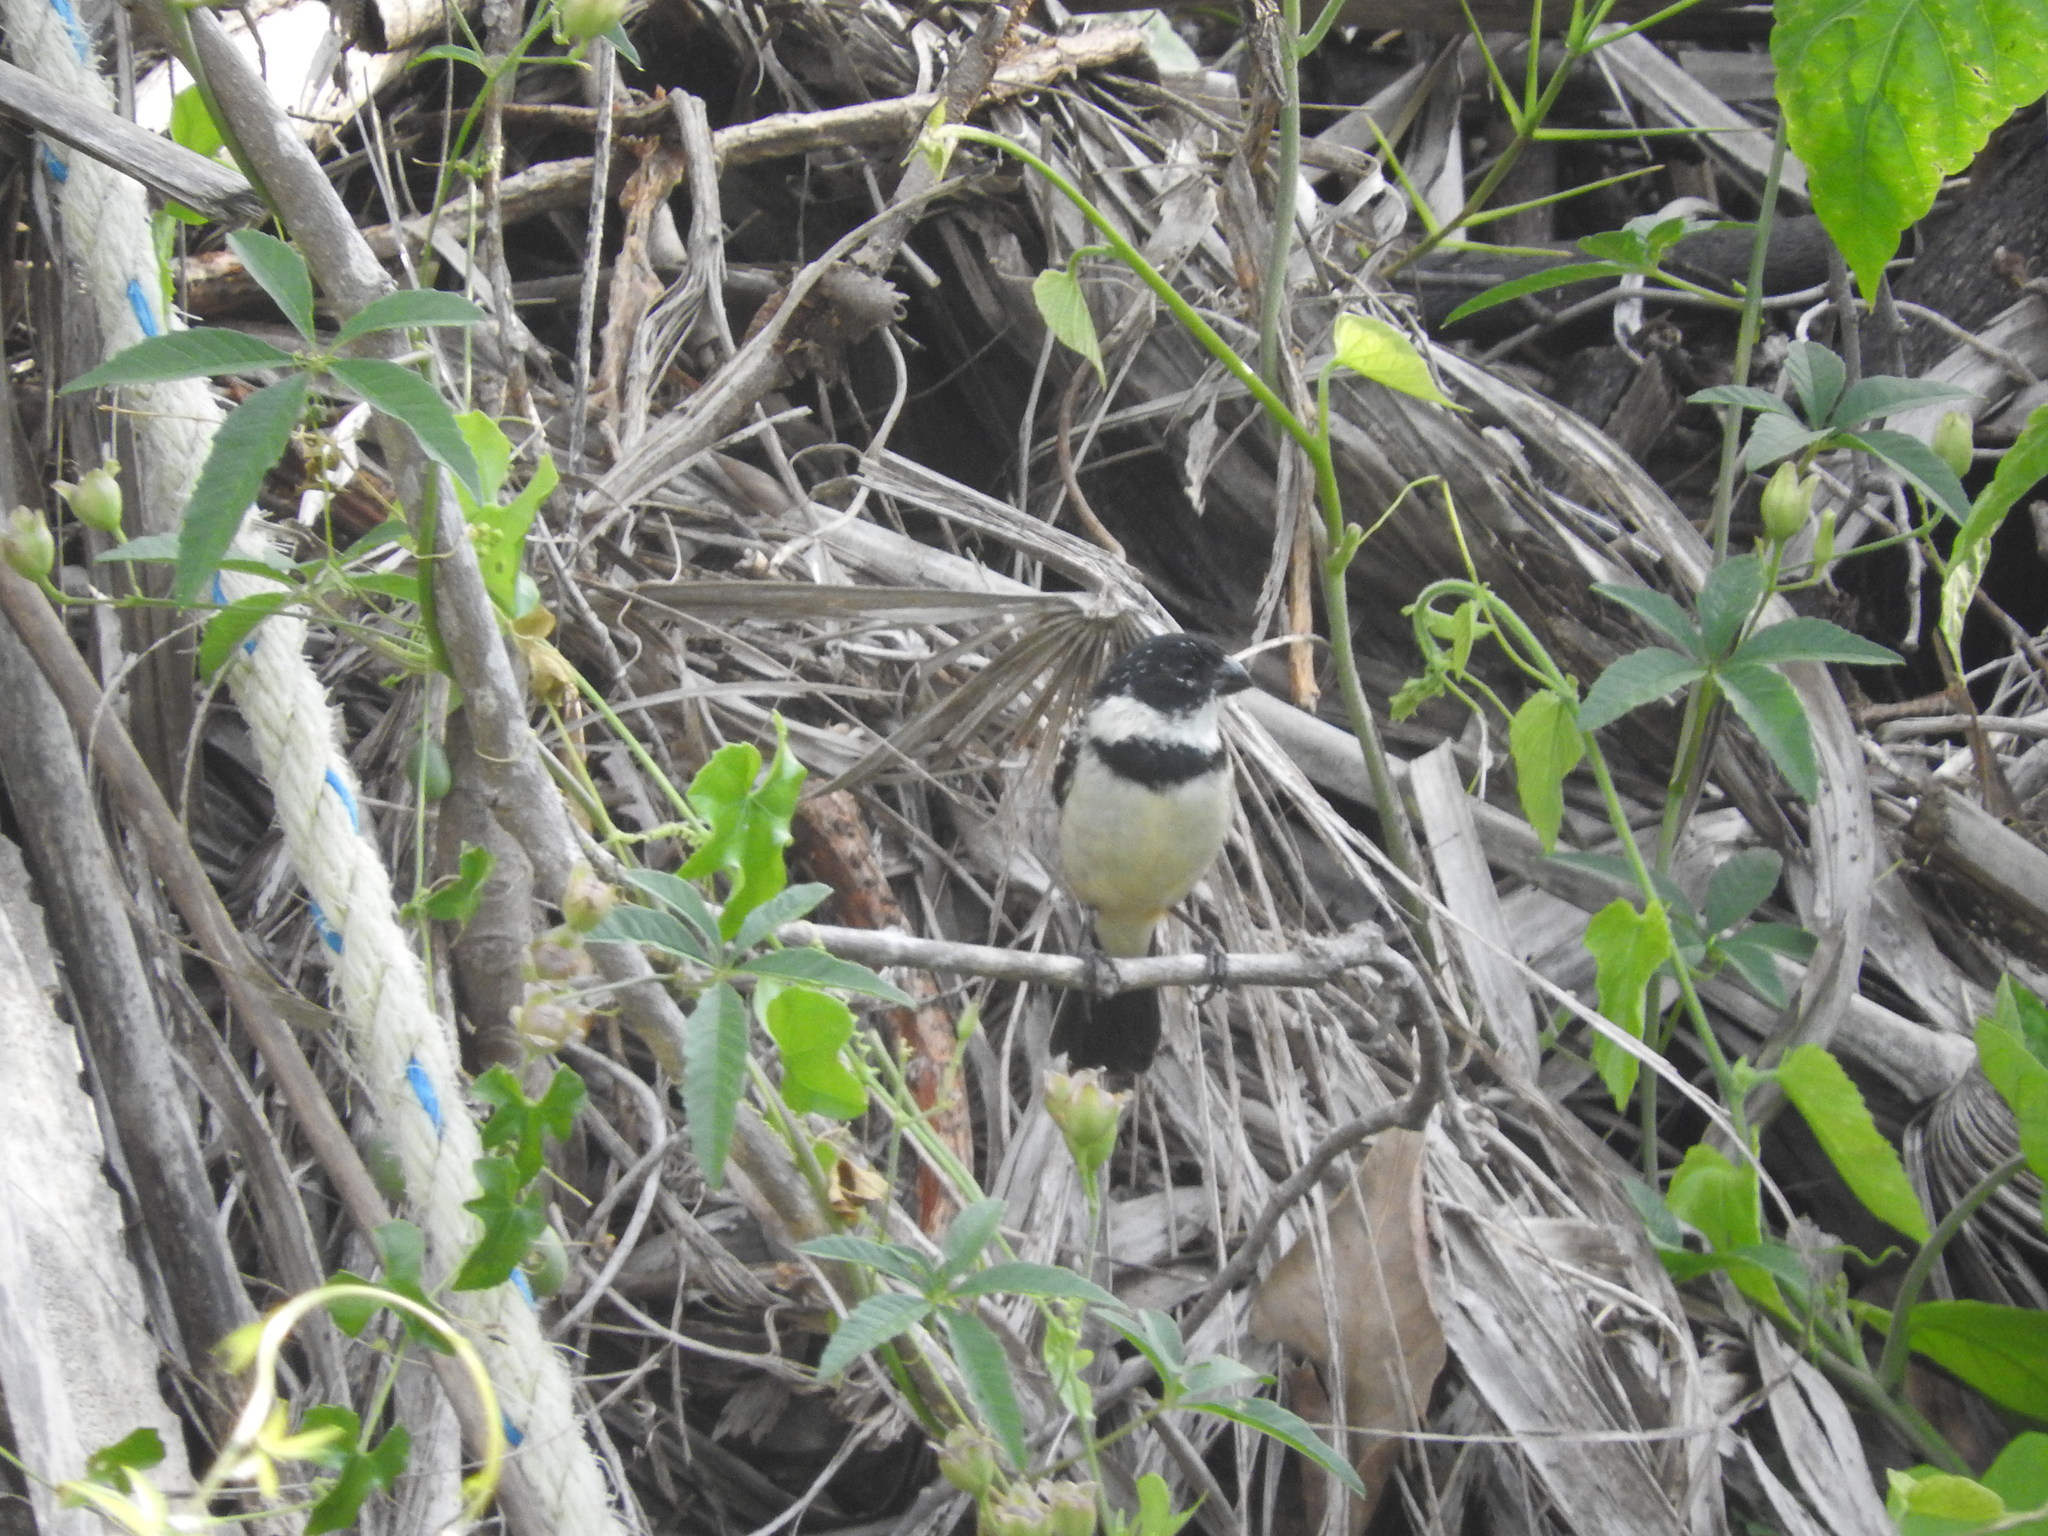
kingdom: Animalia
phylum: Chordata
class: Aves
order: Passeriformes
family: Thraupidae
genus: Sporophila
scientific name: Sporophila morelleti
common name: Morelet's seedeater
